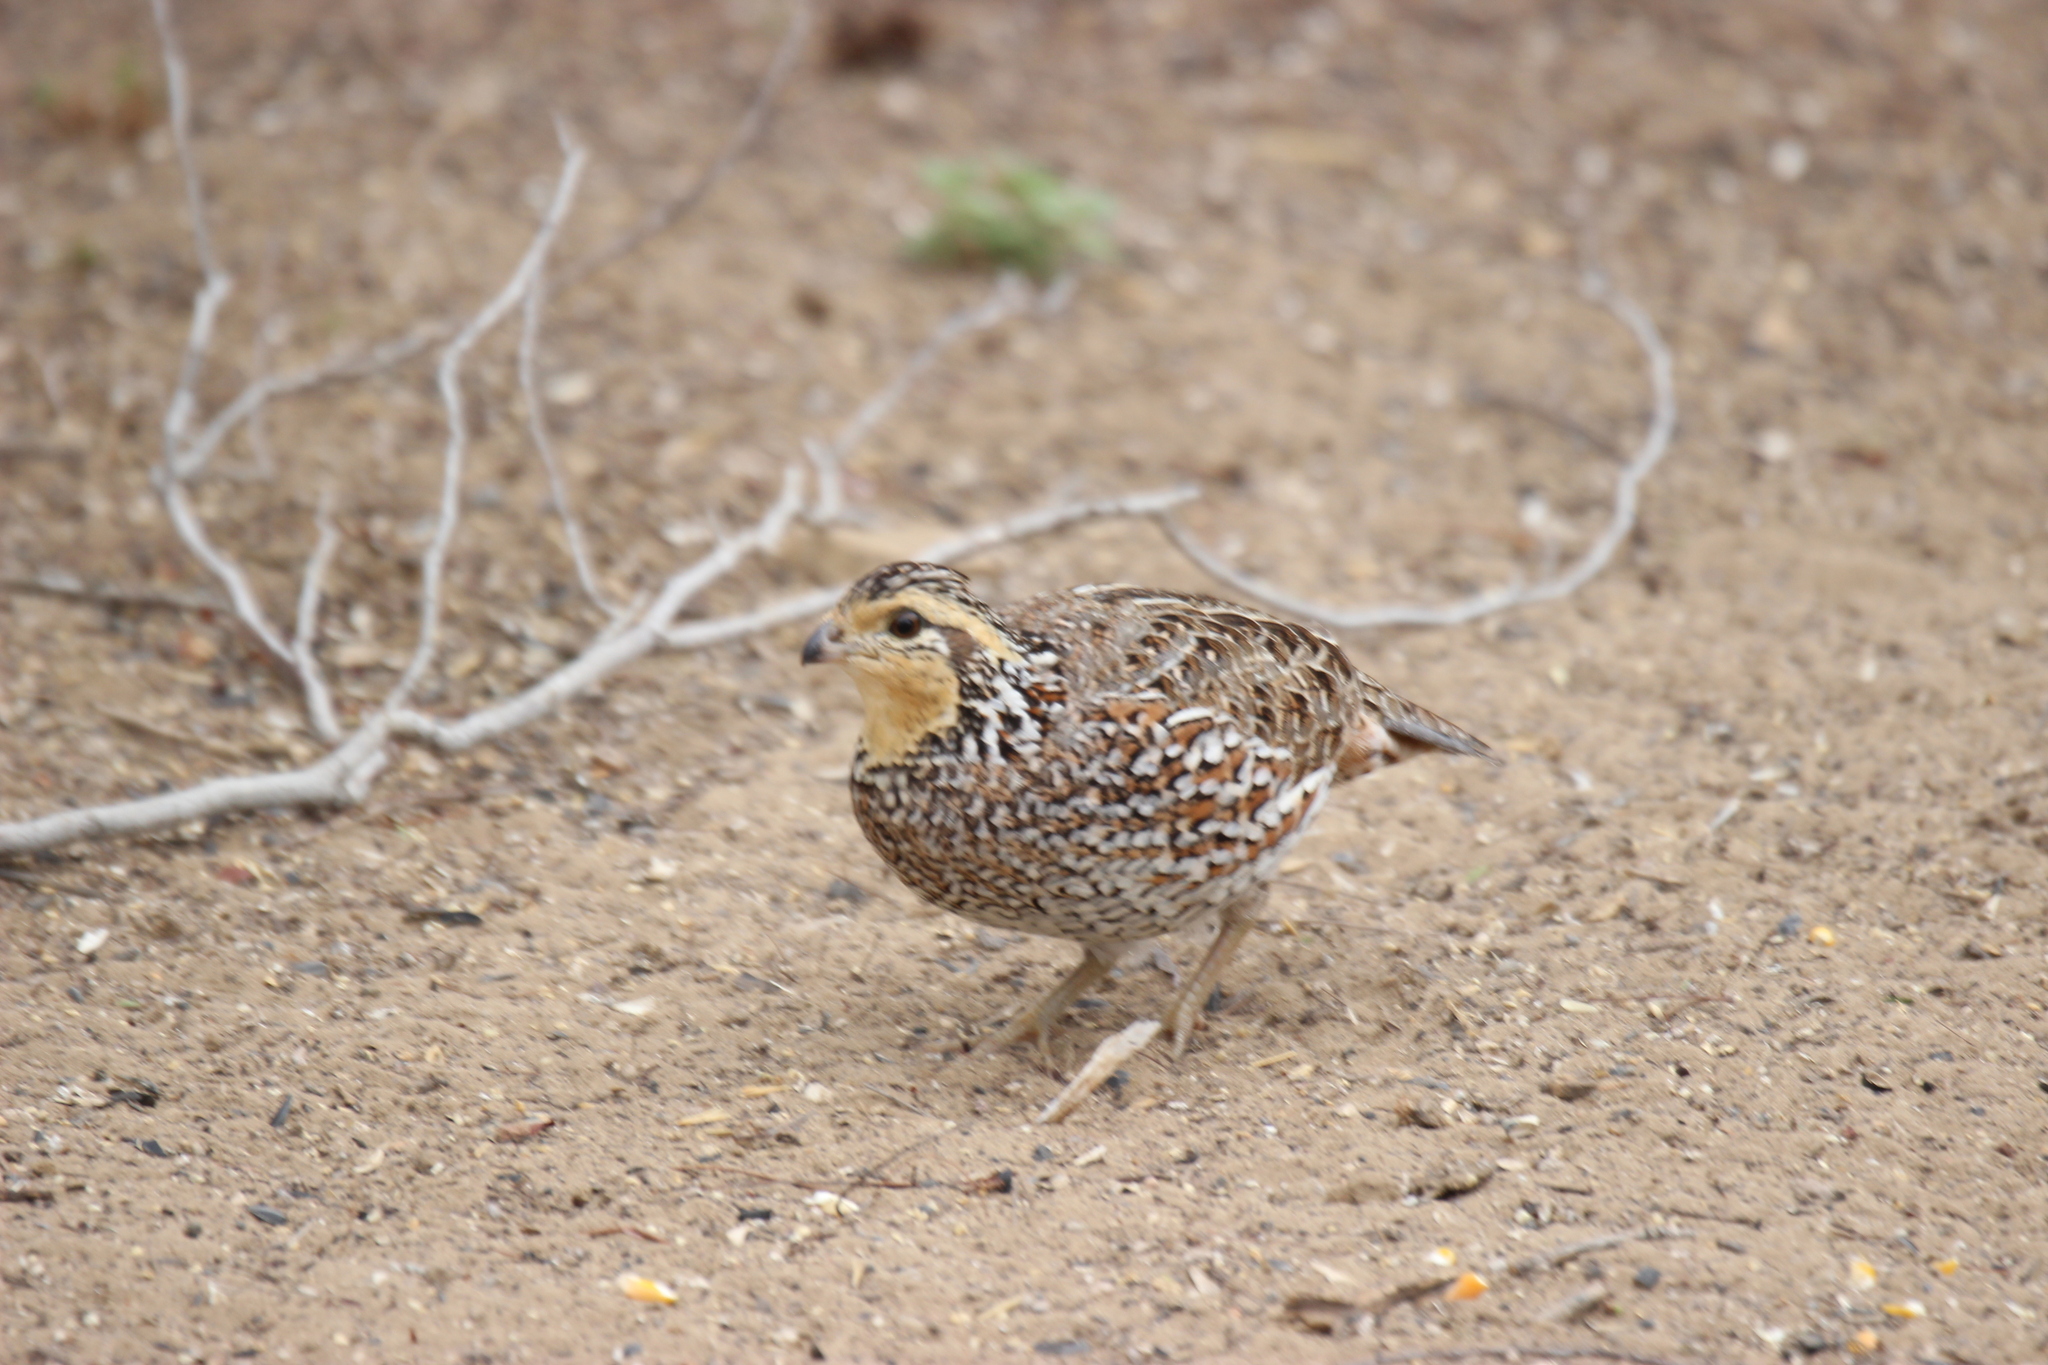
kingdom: Animalia
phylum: Chordata
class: Aves
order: Galliformes
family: Odontophoridae
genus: Colinus
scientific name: Colinus virginianus
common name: Northern bobwhite
